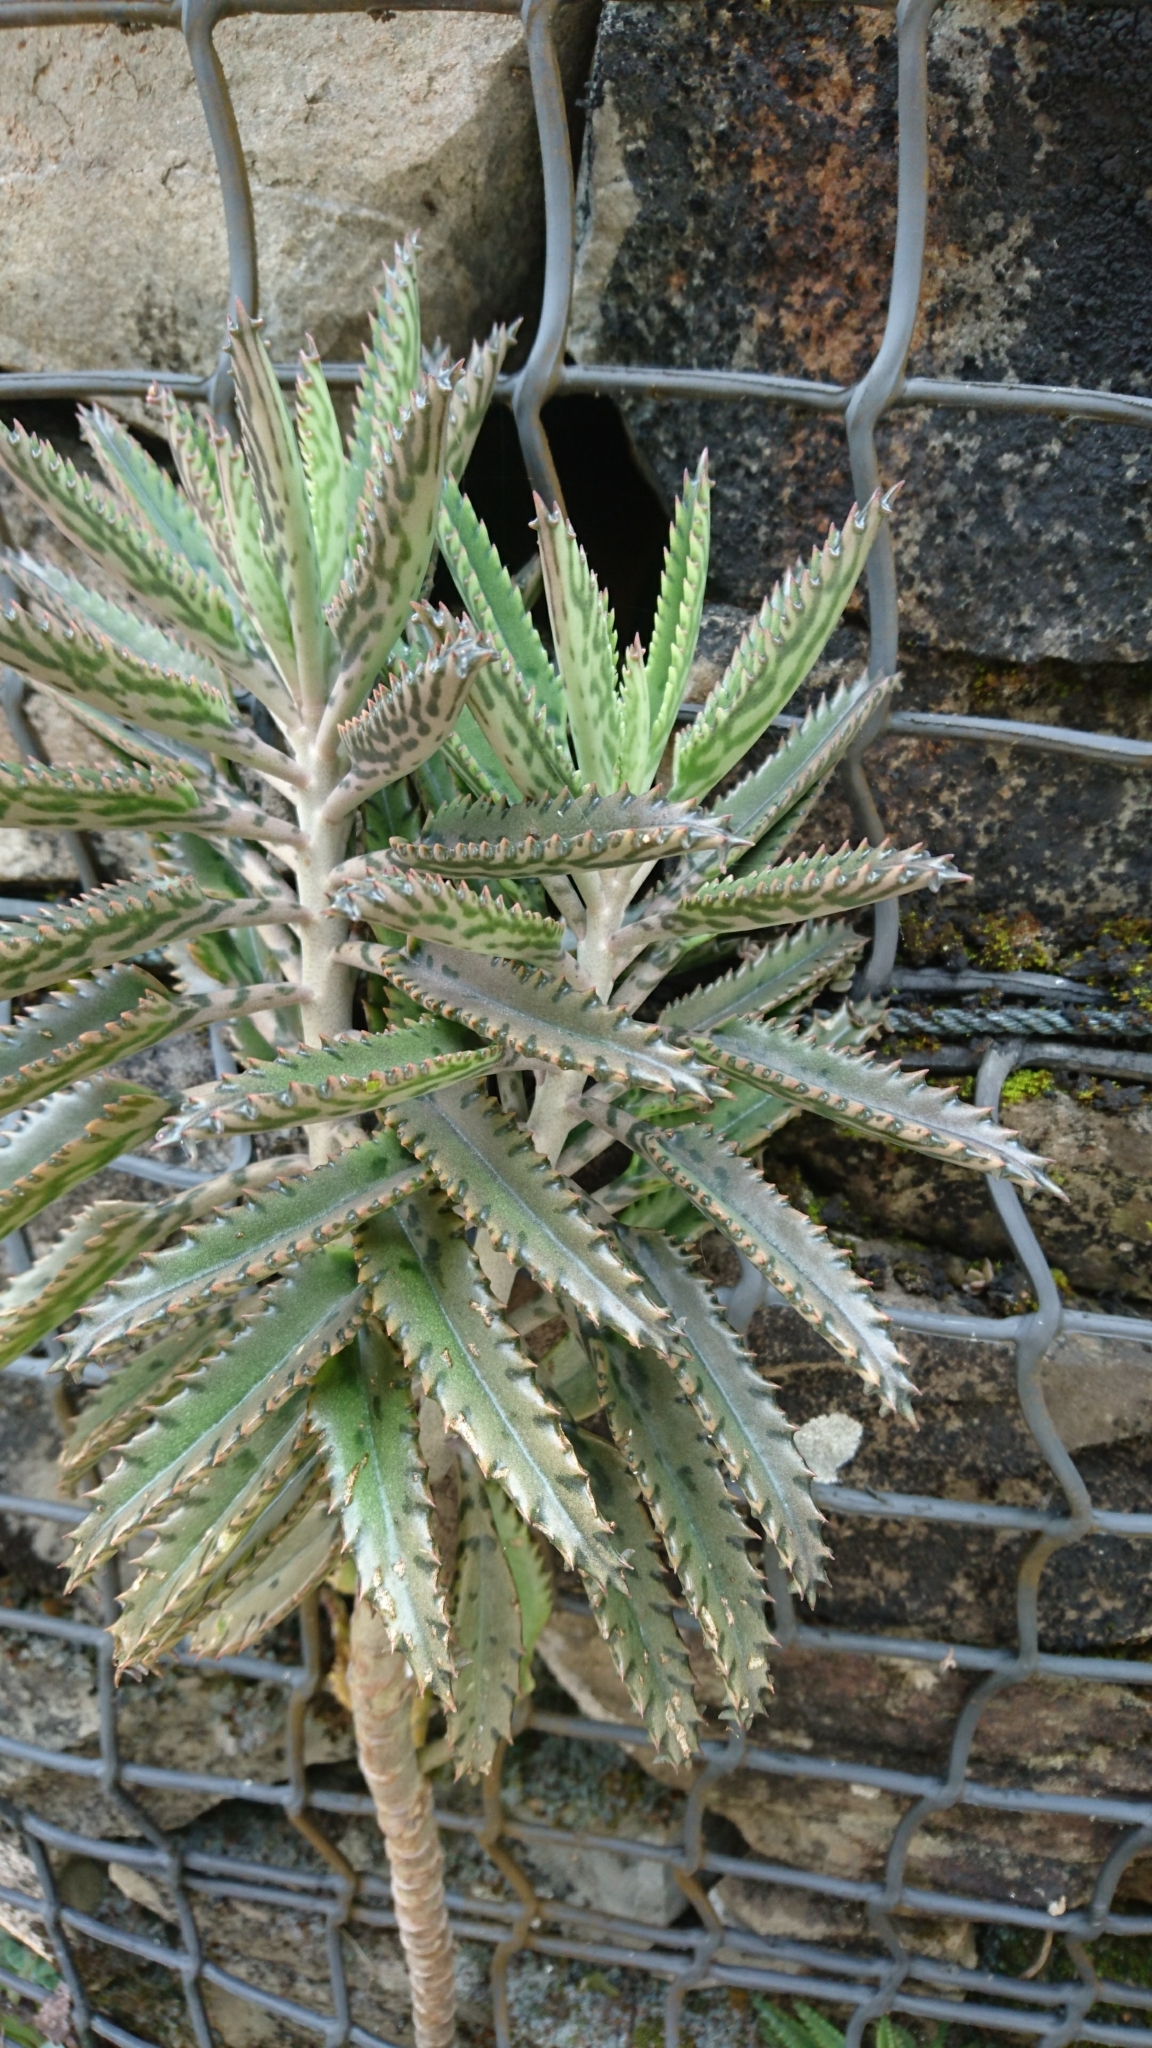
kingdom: Plantae
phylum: Tracheophyta
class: Magnoliopsida
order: Saxifragales
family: Crassulaceae
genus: Kalanchoe
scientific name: Kalanchoe houghtonii
